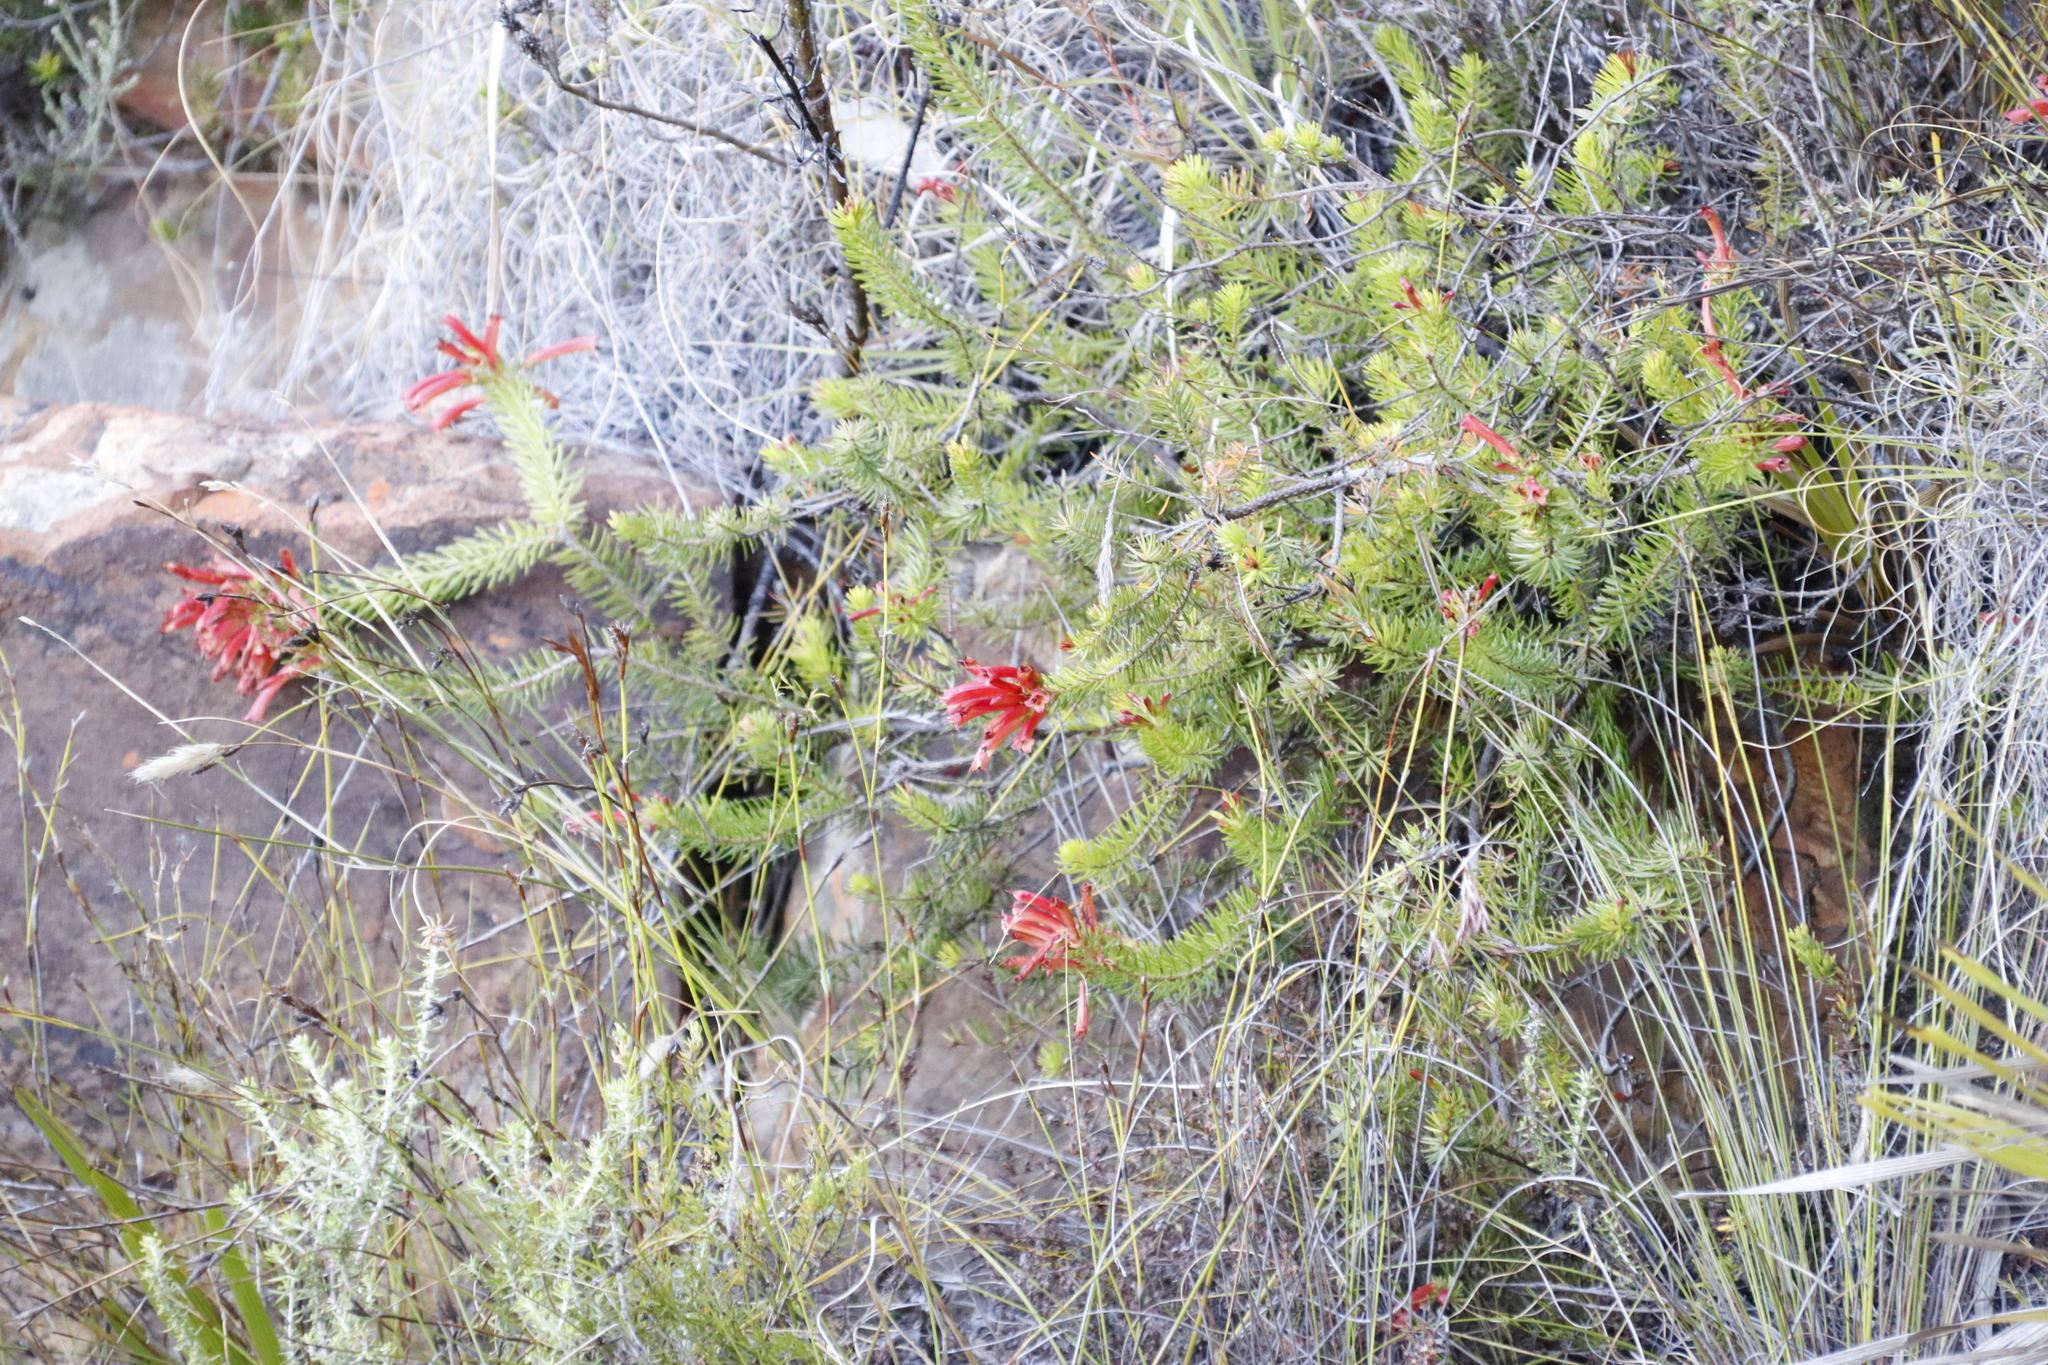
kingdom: Plantae
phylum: Tracheophyta
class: Magnoliopsida
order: Ericales
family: Ericaceae
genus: Erica
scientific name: Erica nevillei
